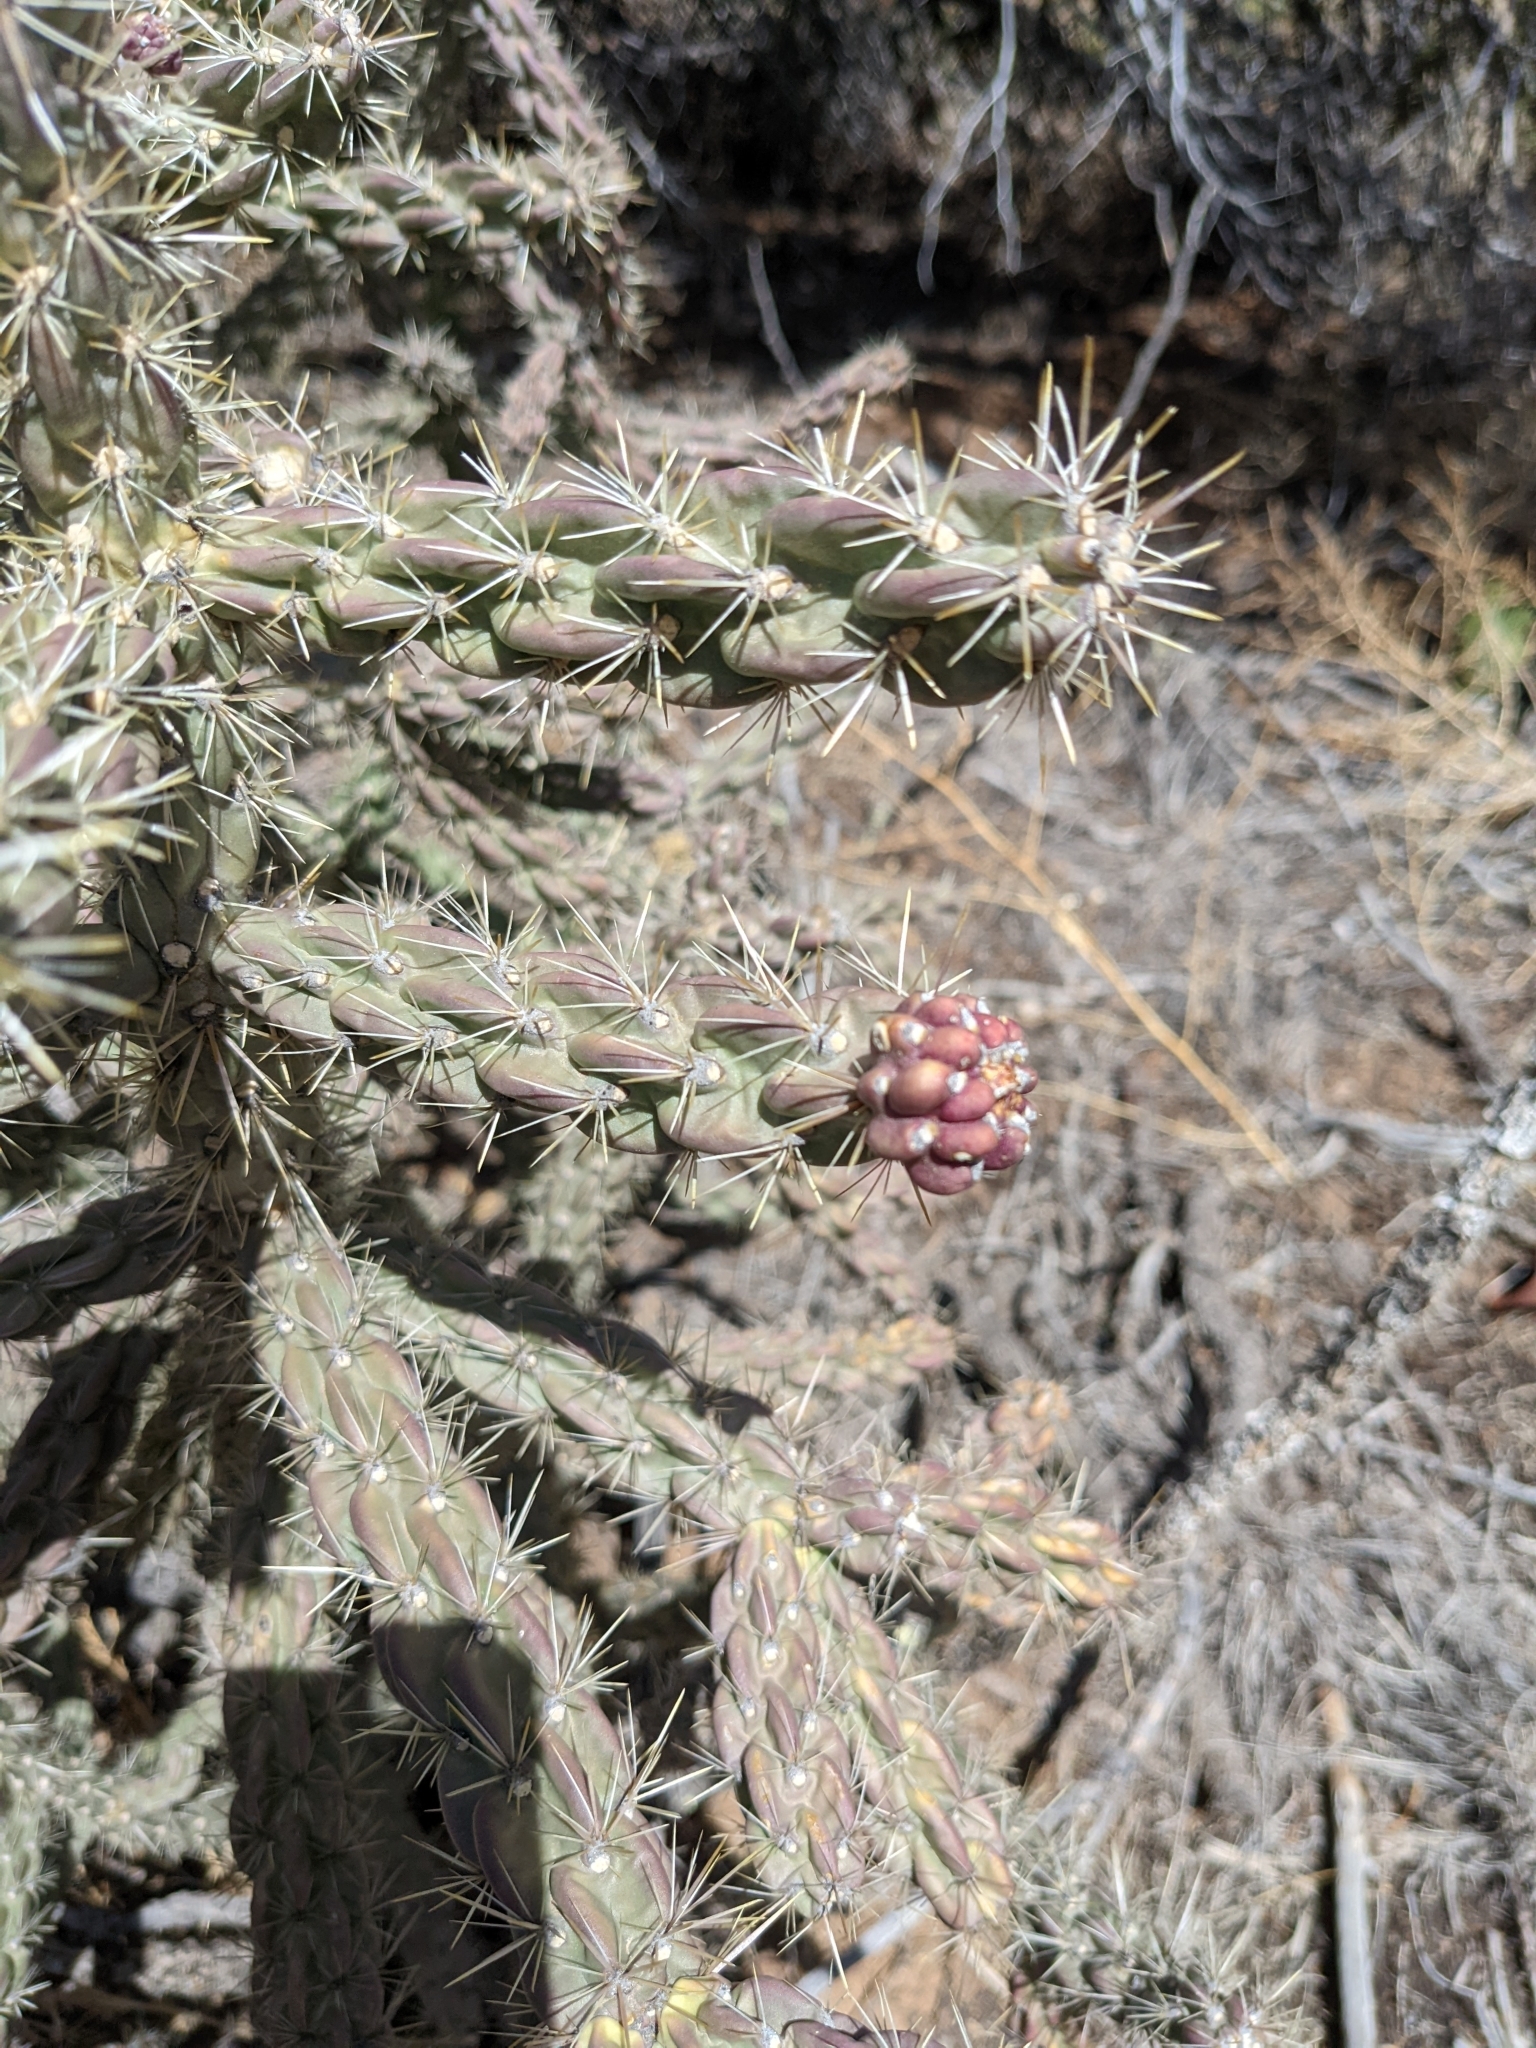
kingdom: Plantae
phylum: Tracheophyta
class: Magnoliopsida
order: Caryophyllales
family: Cactaceae
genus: Cylindropuntia
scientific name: Cylindropuntia imbricata
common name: Candelabrum cactus
